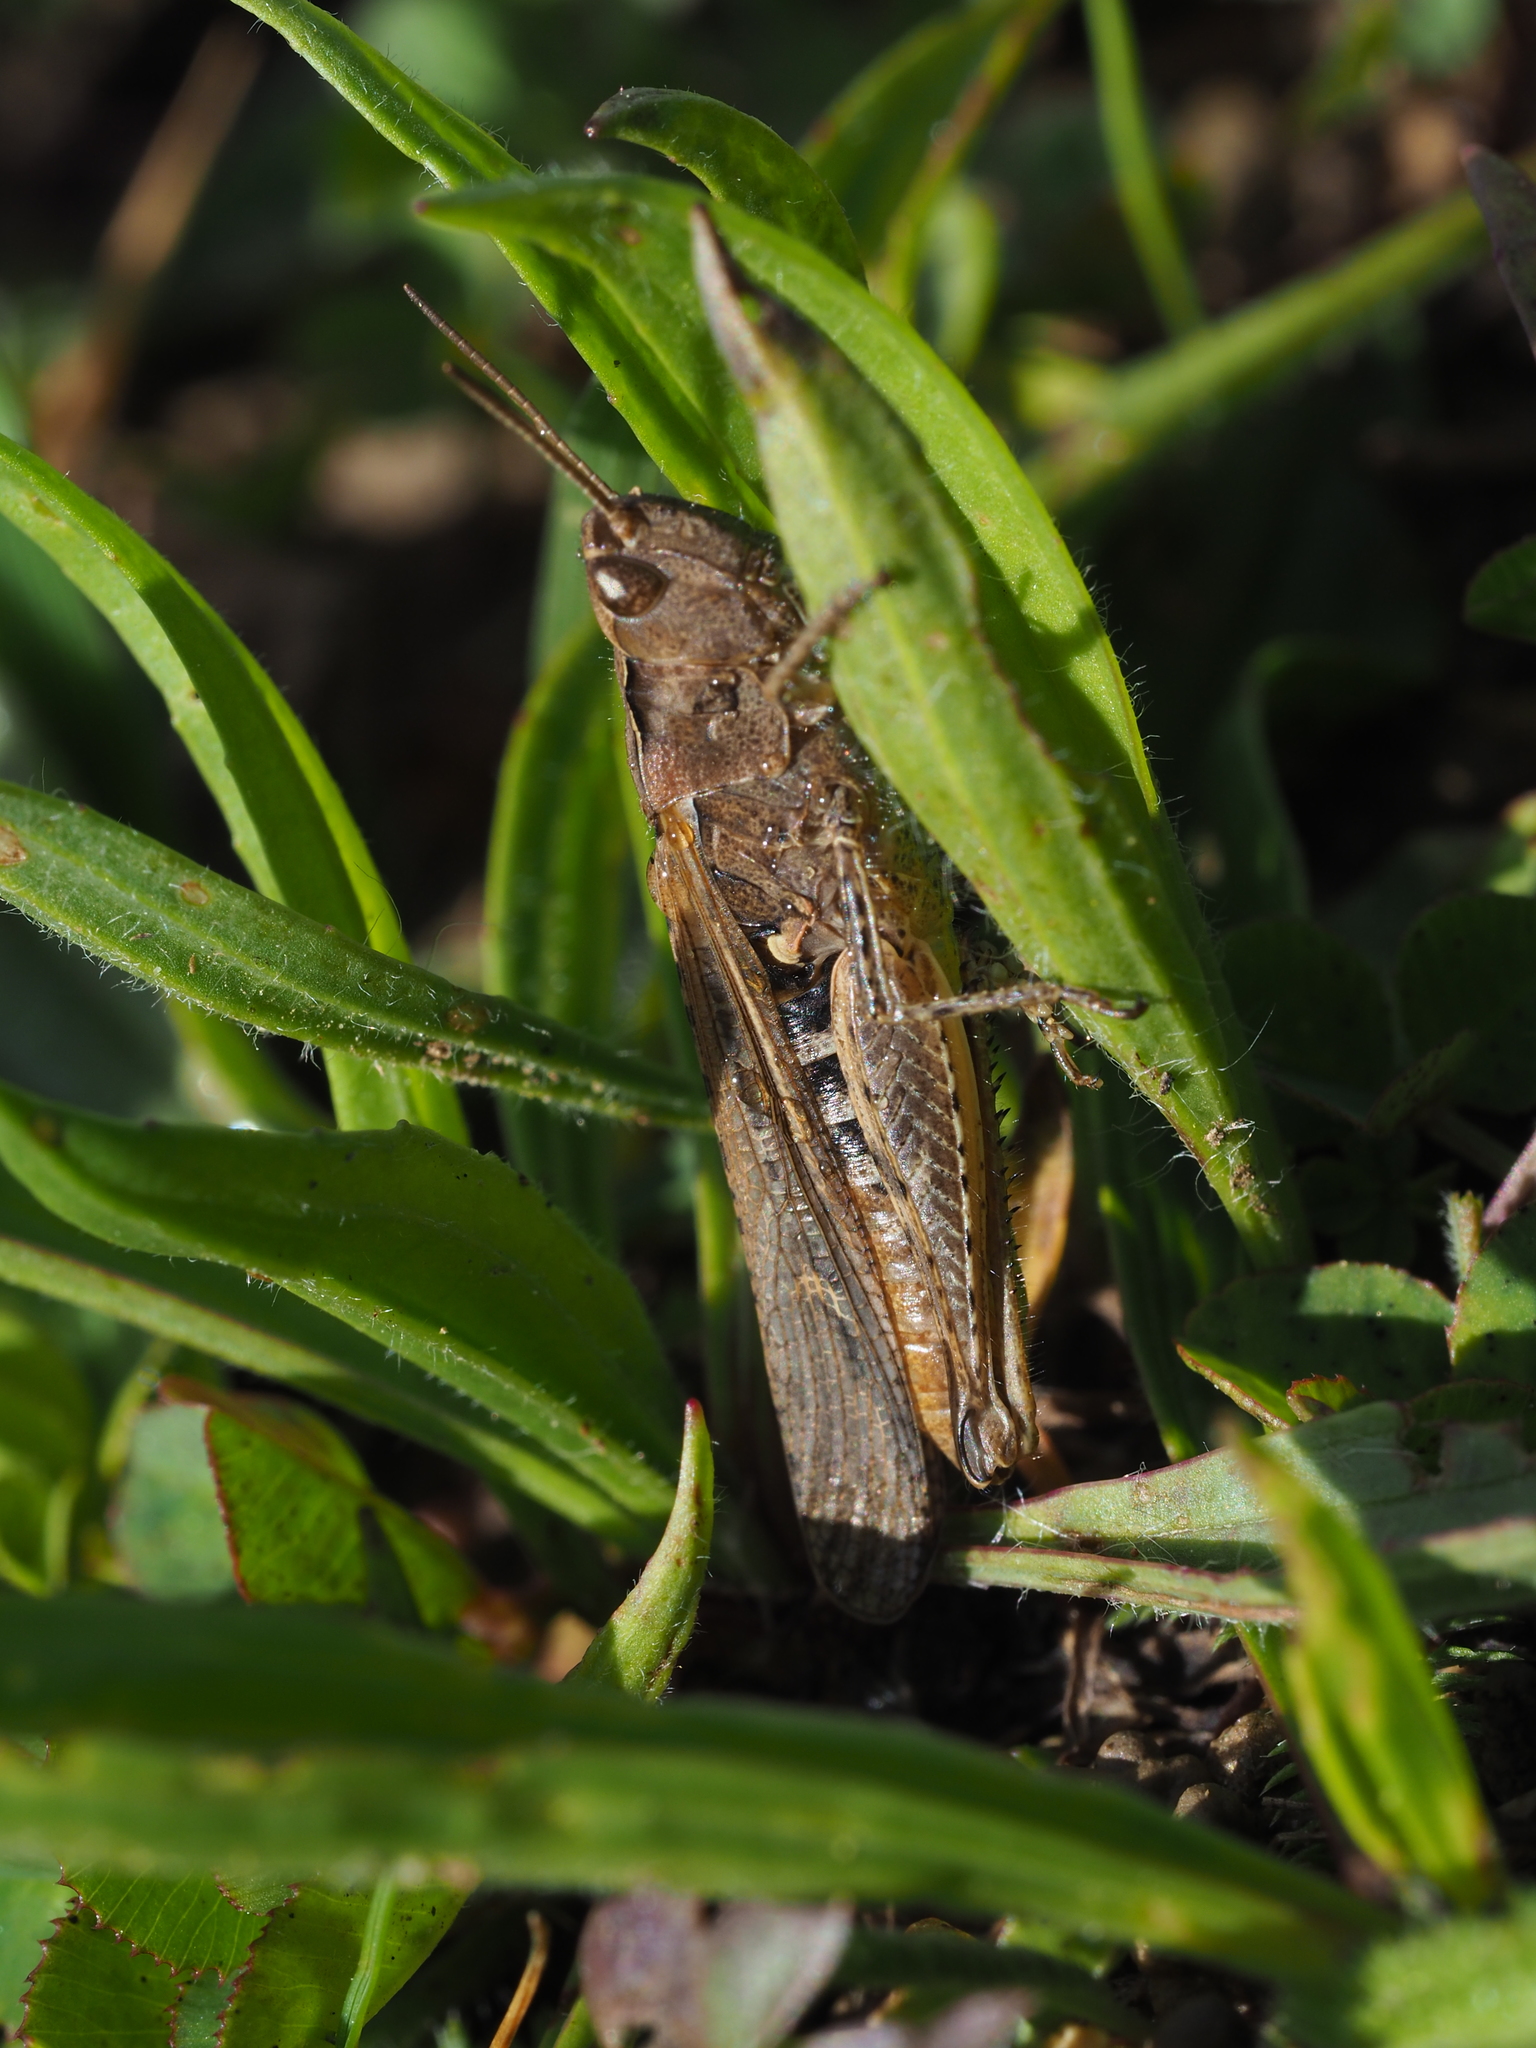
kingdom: Animalia
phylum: Arthropoda
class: Insecta
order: Orthoptera
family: Acrididae
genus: Chorthippus
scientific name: Chorthippus brunneus
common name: Field grasshopper
